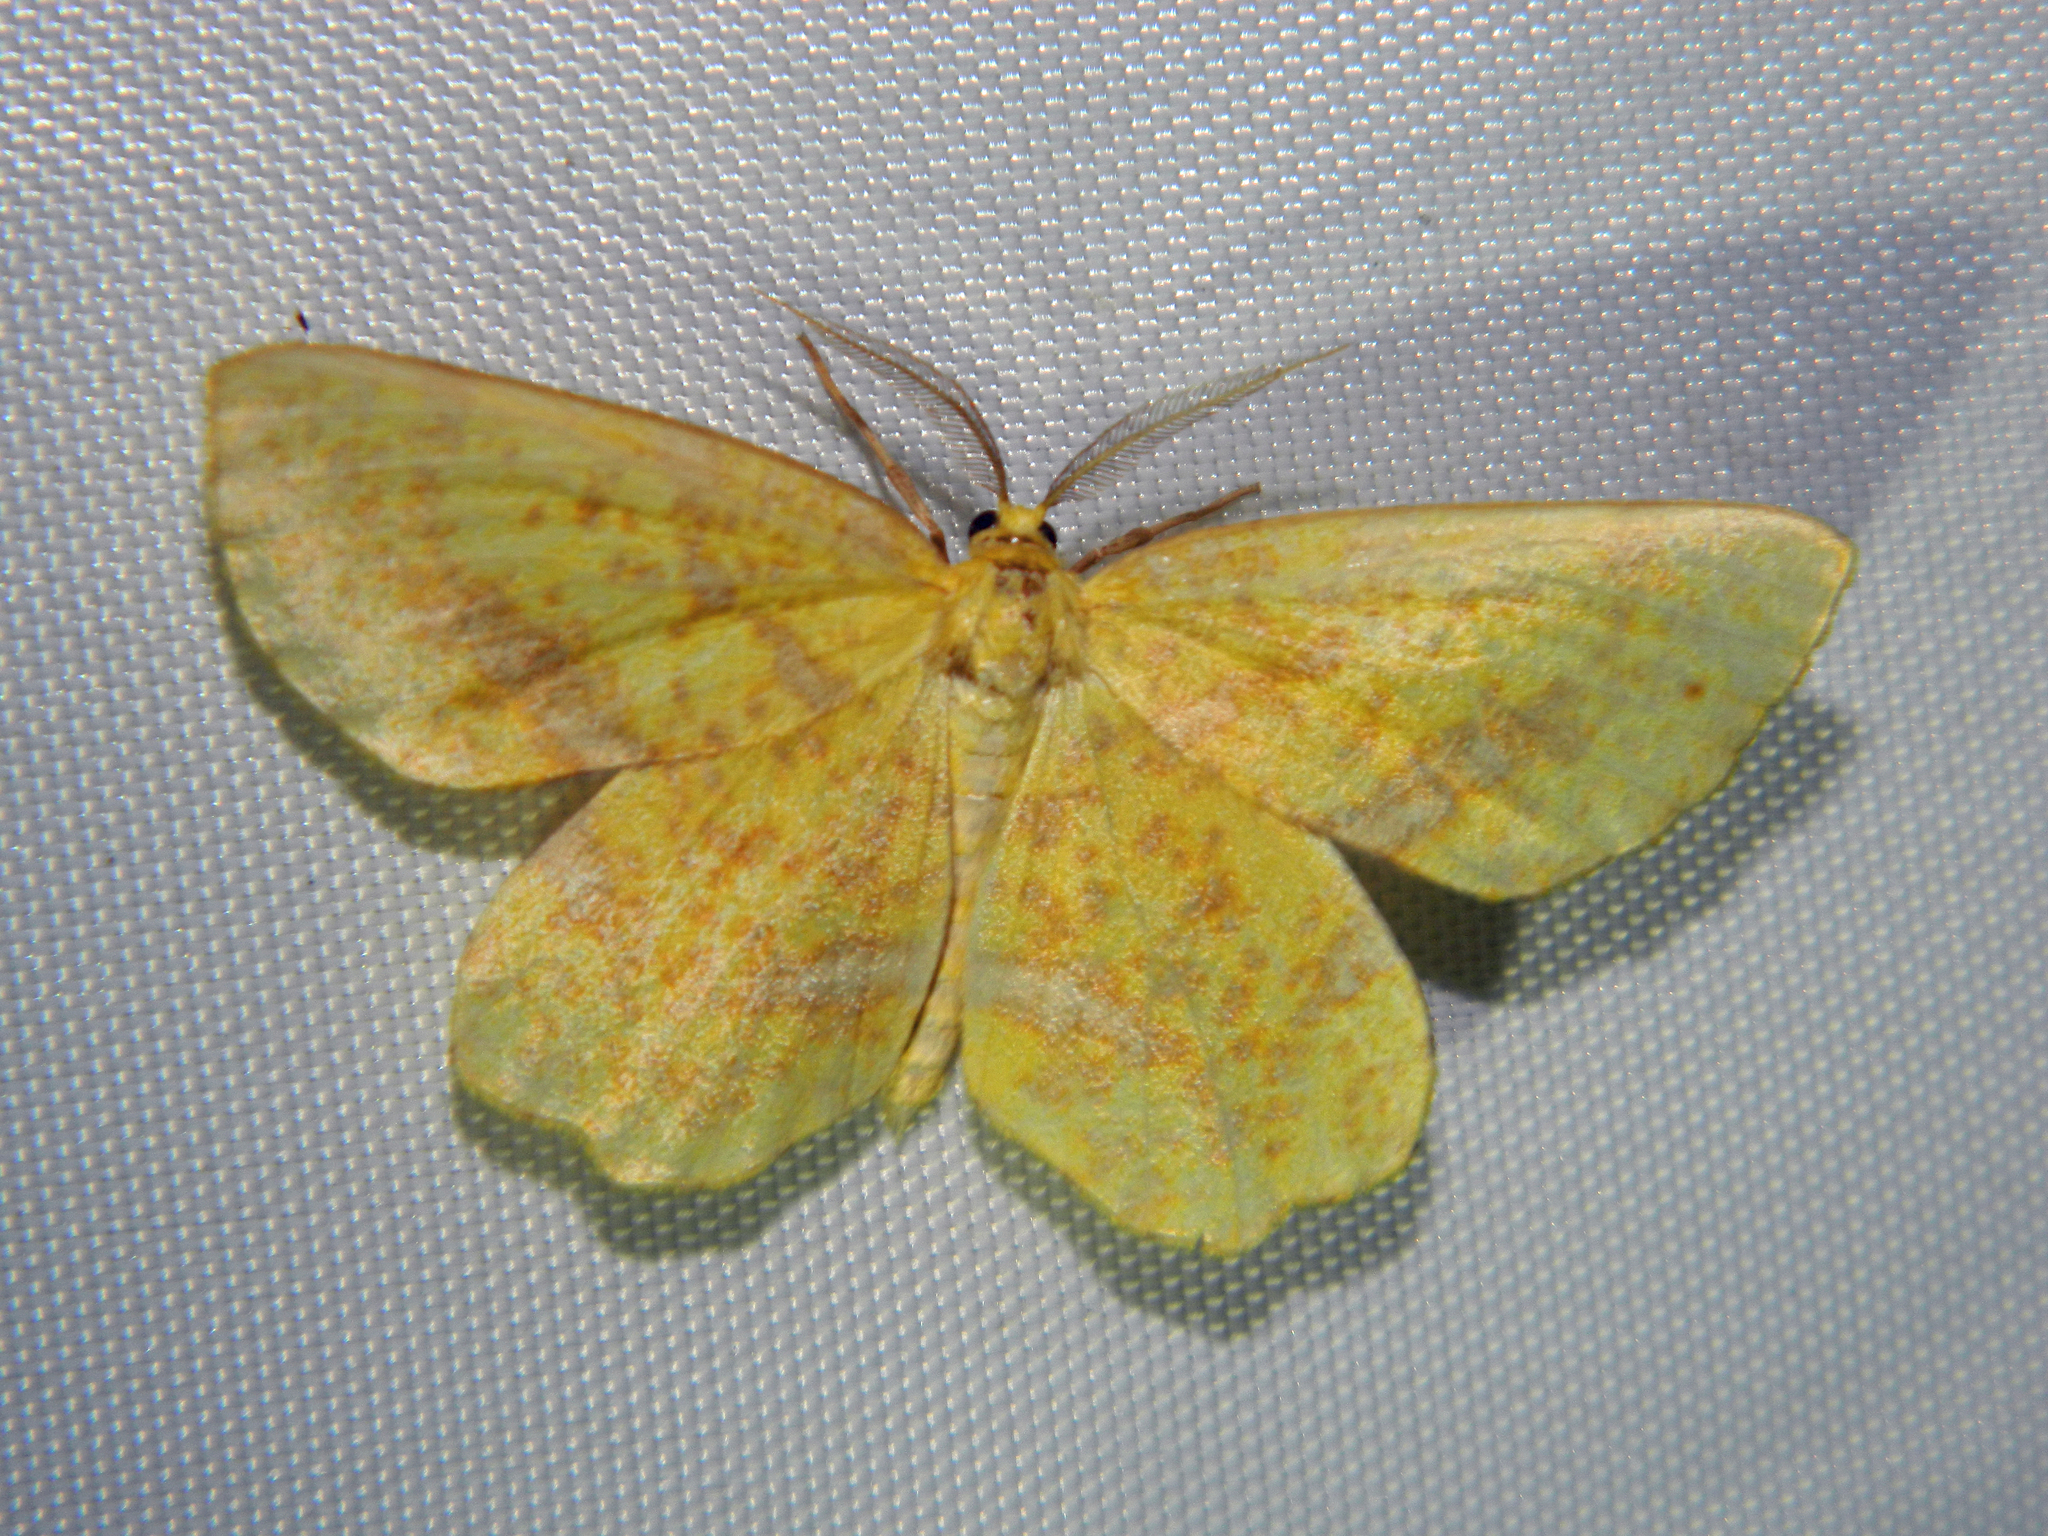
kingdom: Animalia
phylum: Arthropoda
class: Insecta
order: Lepidoptera
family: Geometridae
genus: Xanthotype
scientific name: Xanthotype
